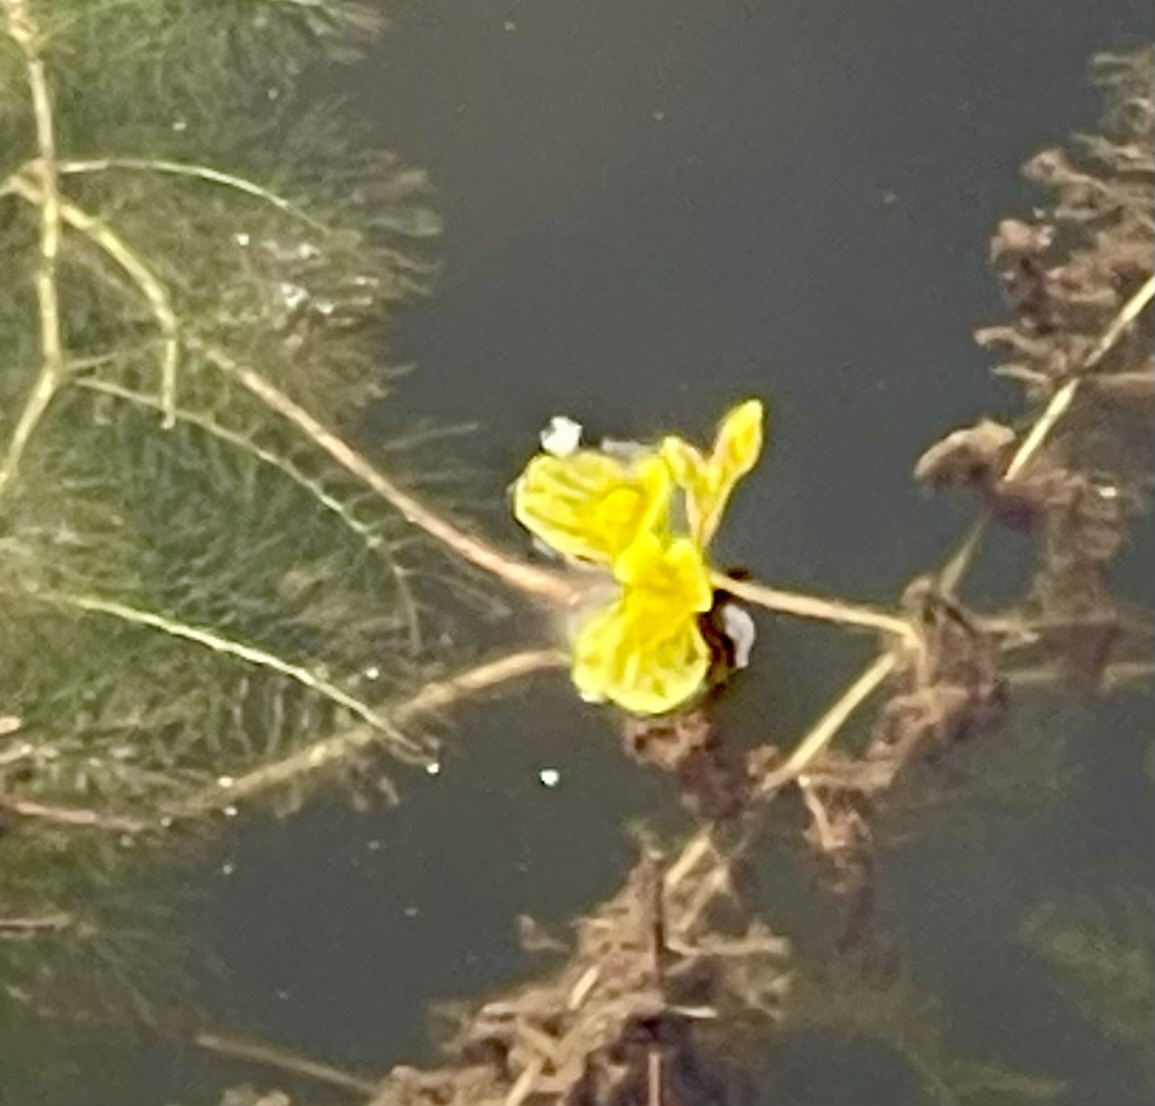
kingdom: Plantae
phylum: Tracheophyta
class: Magnoliopsida
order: Lamiales
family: Lentibulariaceae
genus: Utricularia
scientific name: Utricularia aurea
